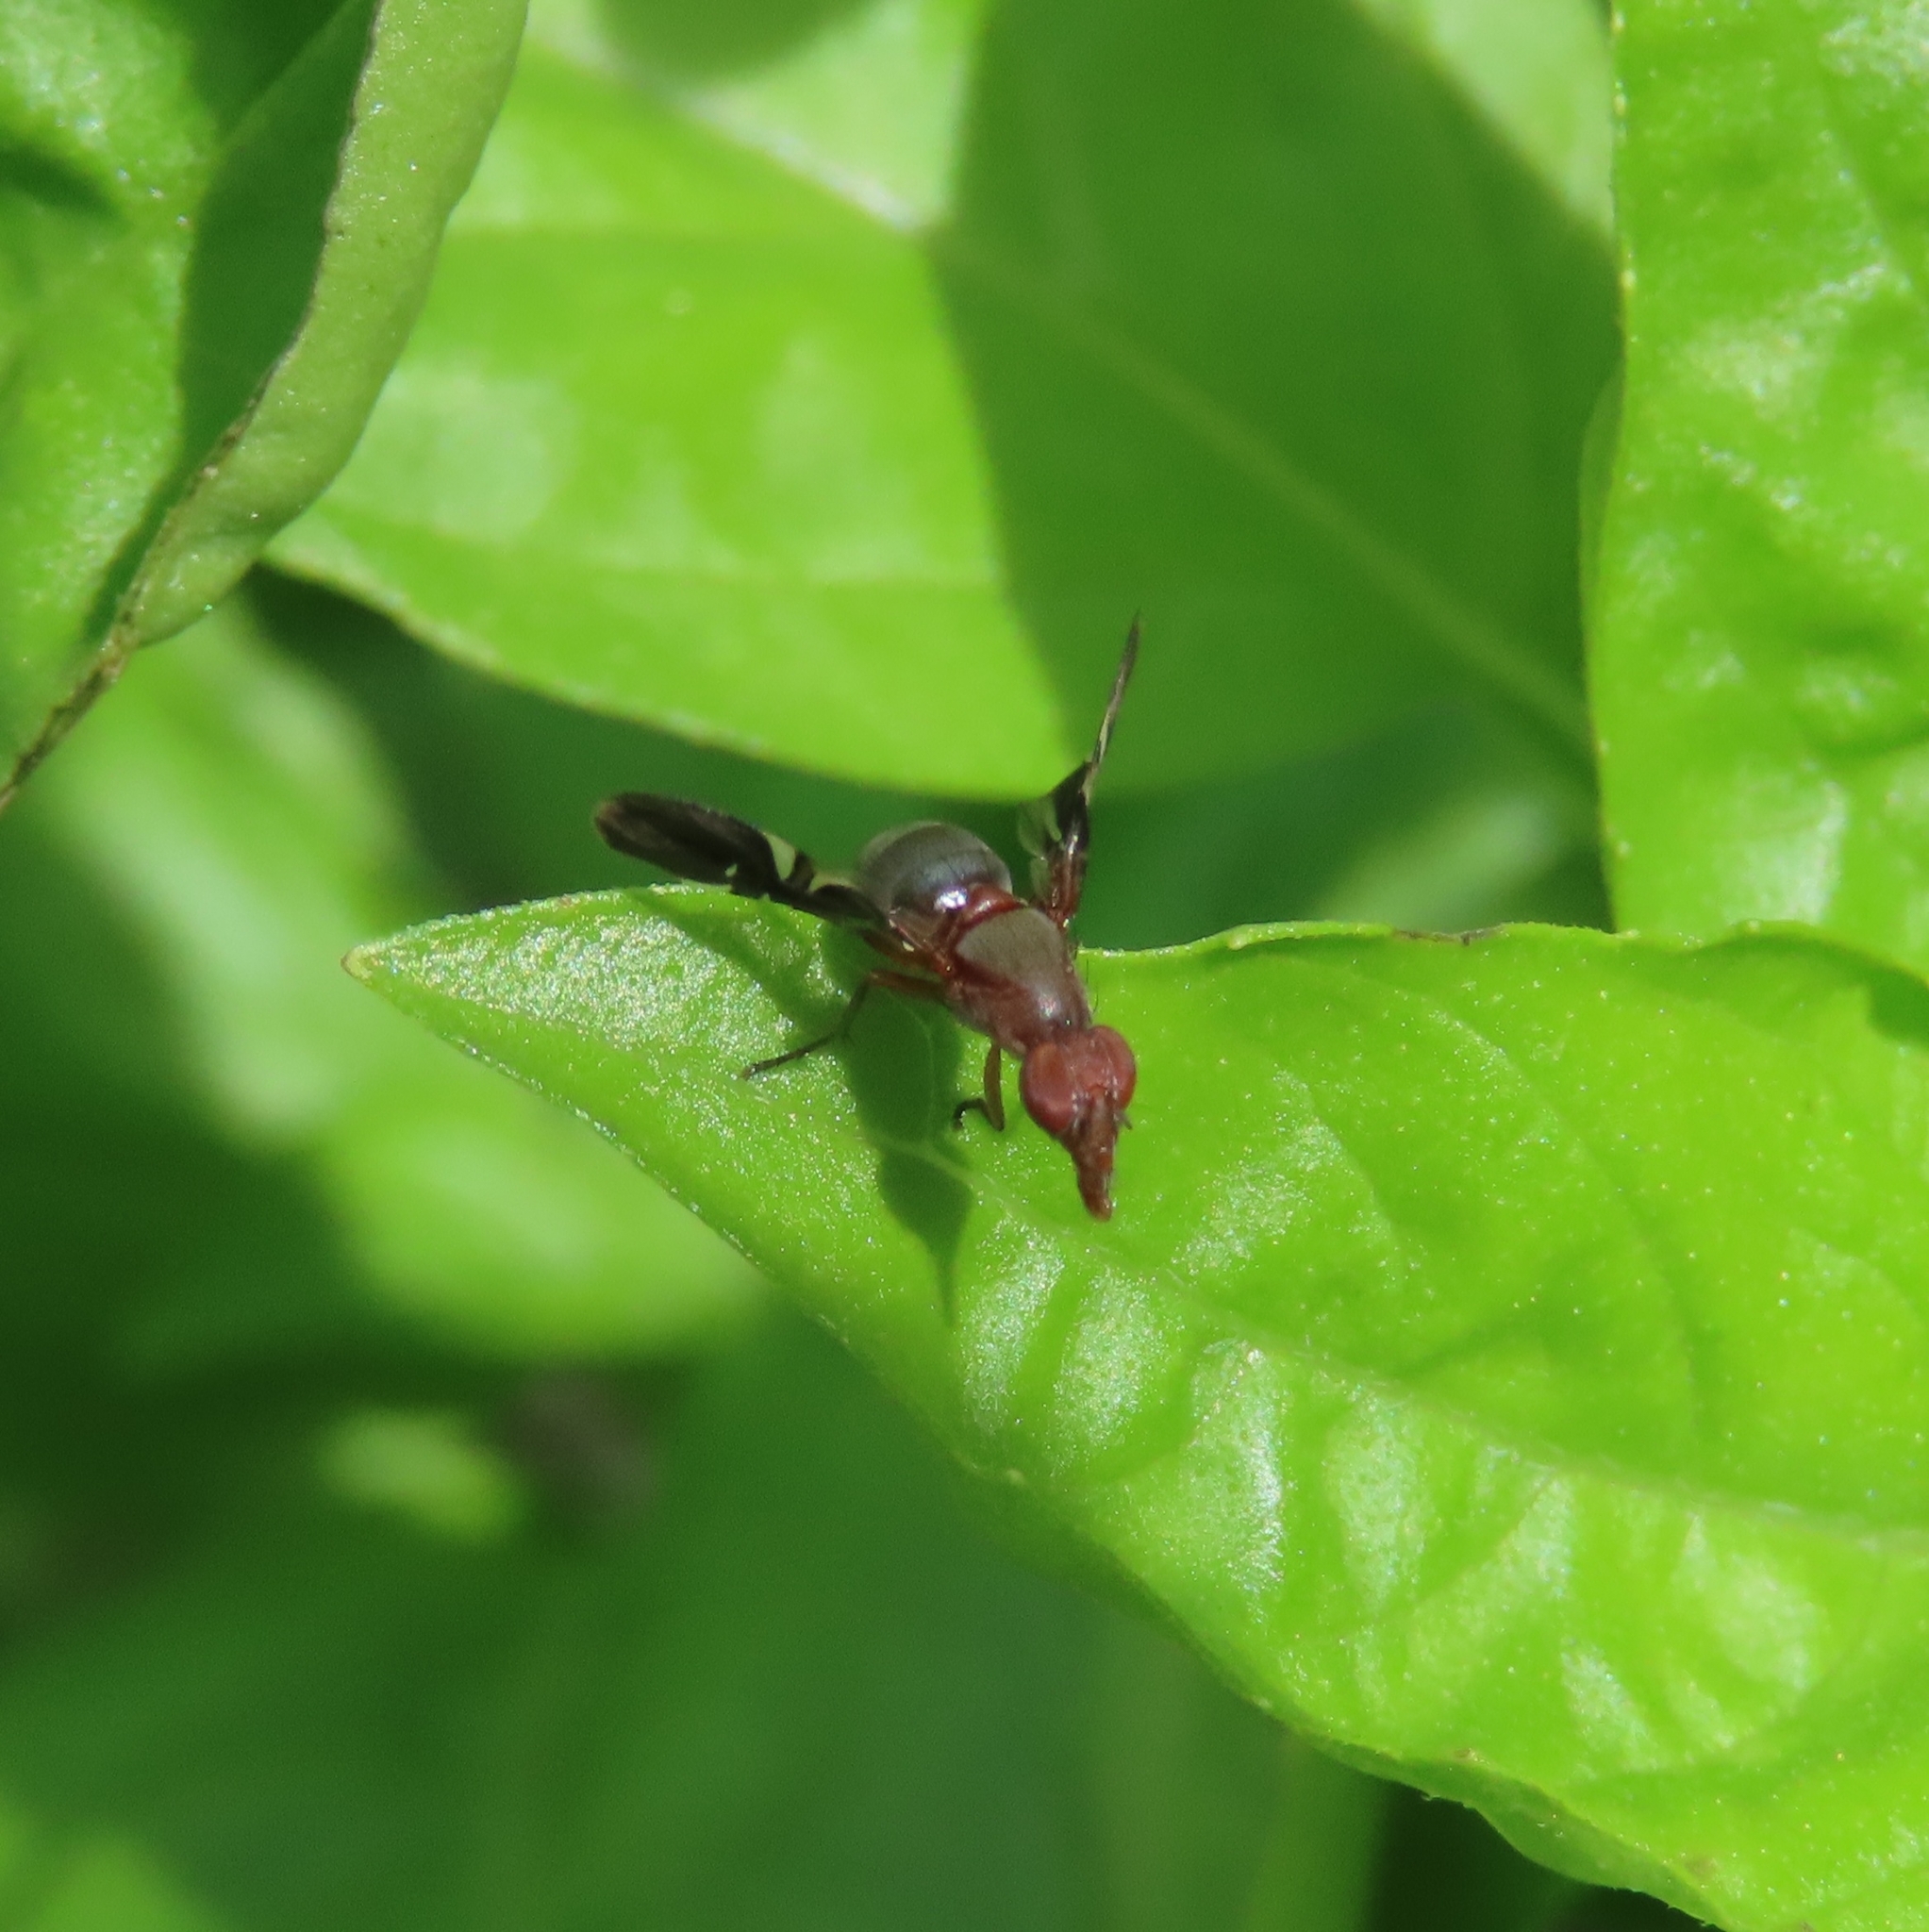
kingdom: Animalia
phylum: Arthropoda
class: Insecta
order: Diptera
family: Ulidiidae
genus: Delphinia
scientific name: Delphinia picta
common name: Common picture-winged fly
